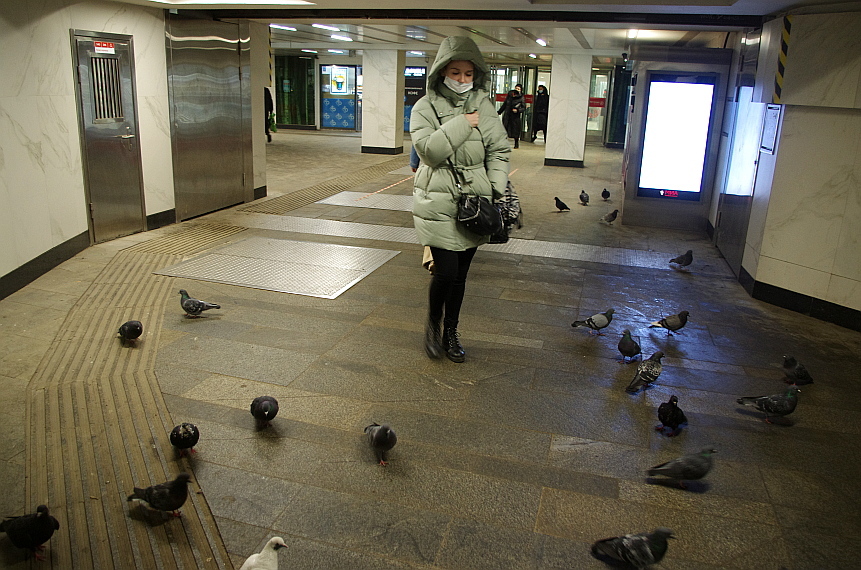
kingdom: Animalia
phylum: Chordata
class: Aves
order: Columbiformes
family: Columbidae
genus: Columba
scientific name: Columba livia
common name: Rock pigeon
